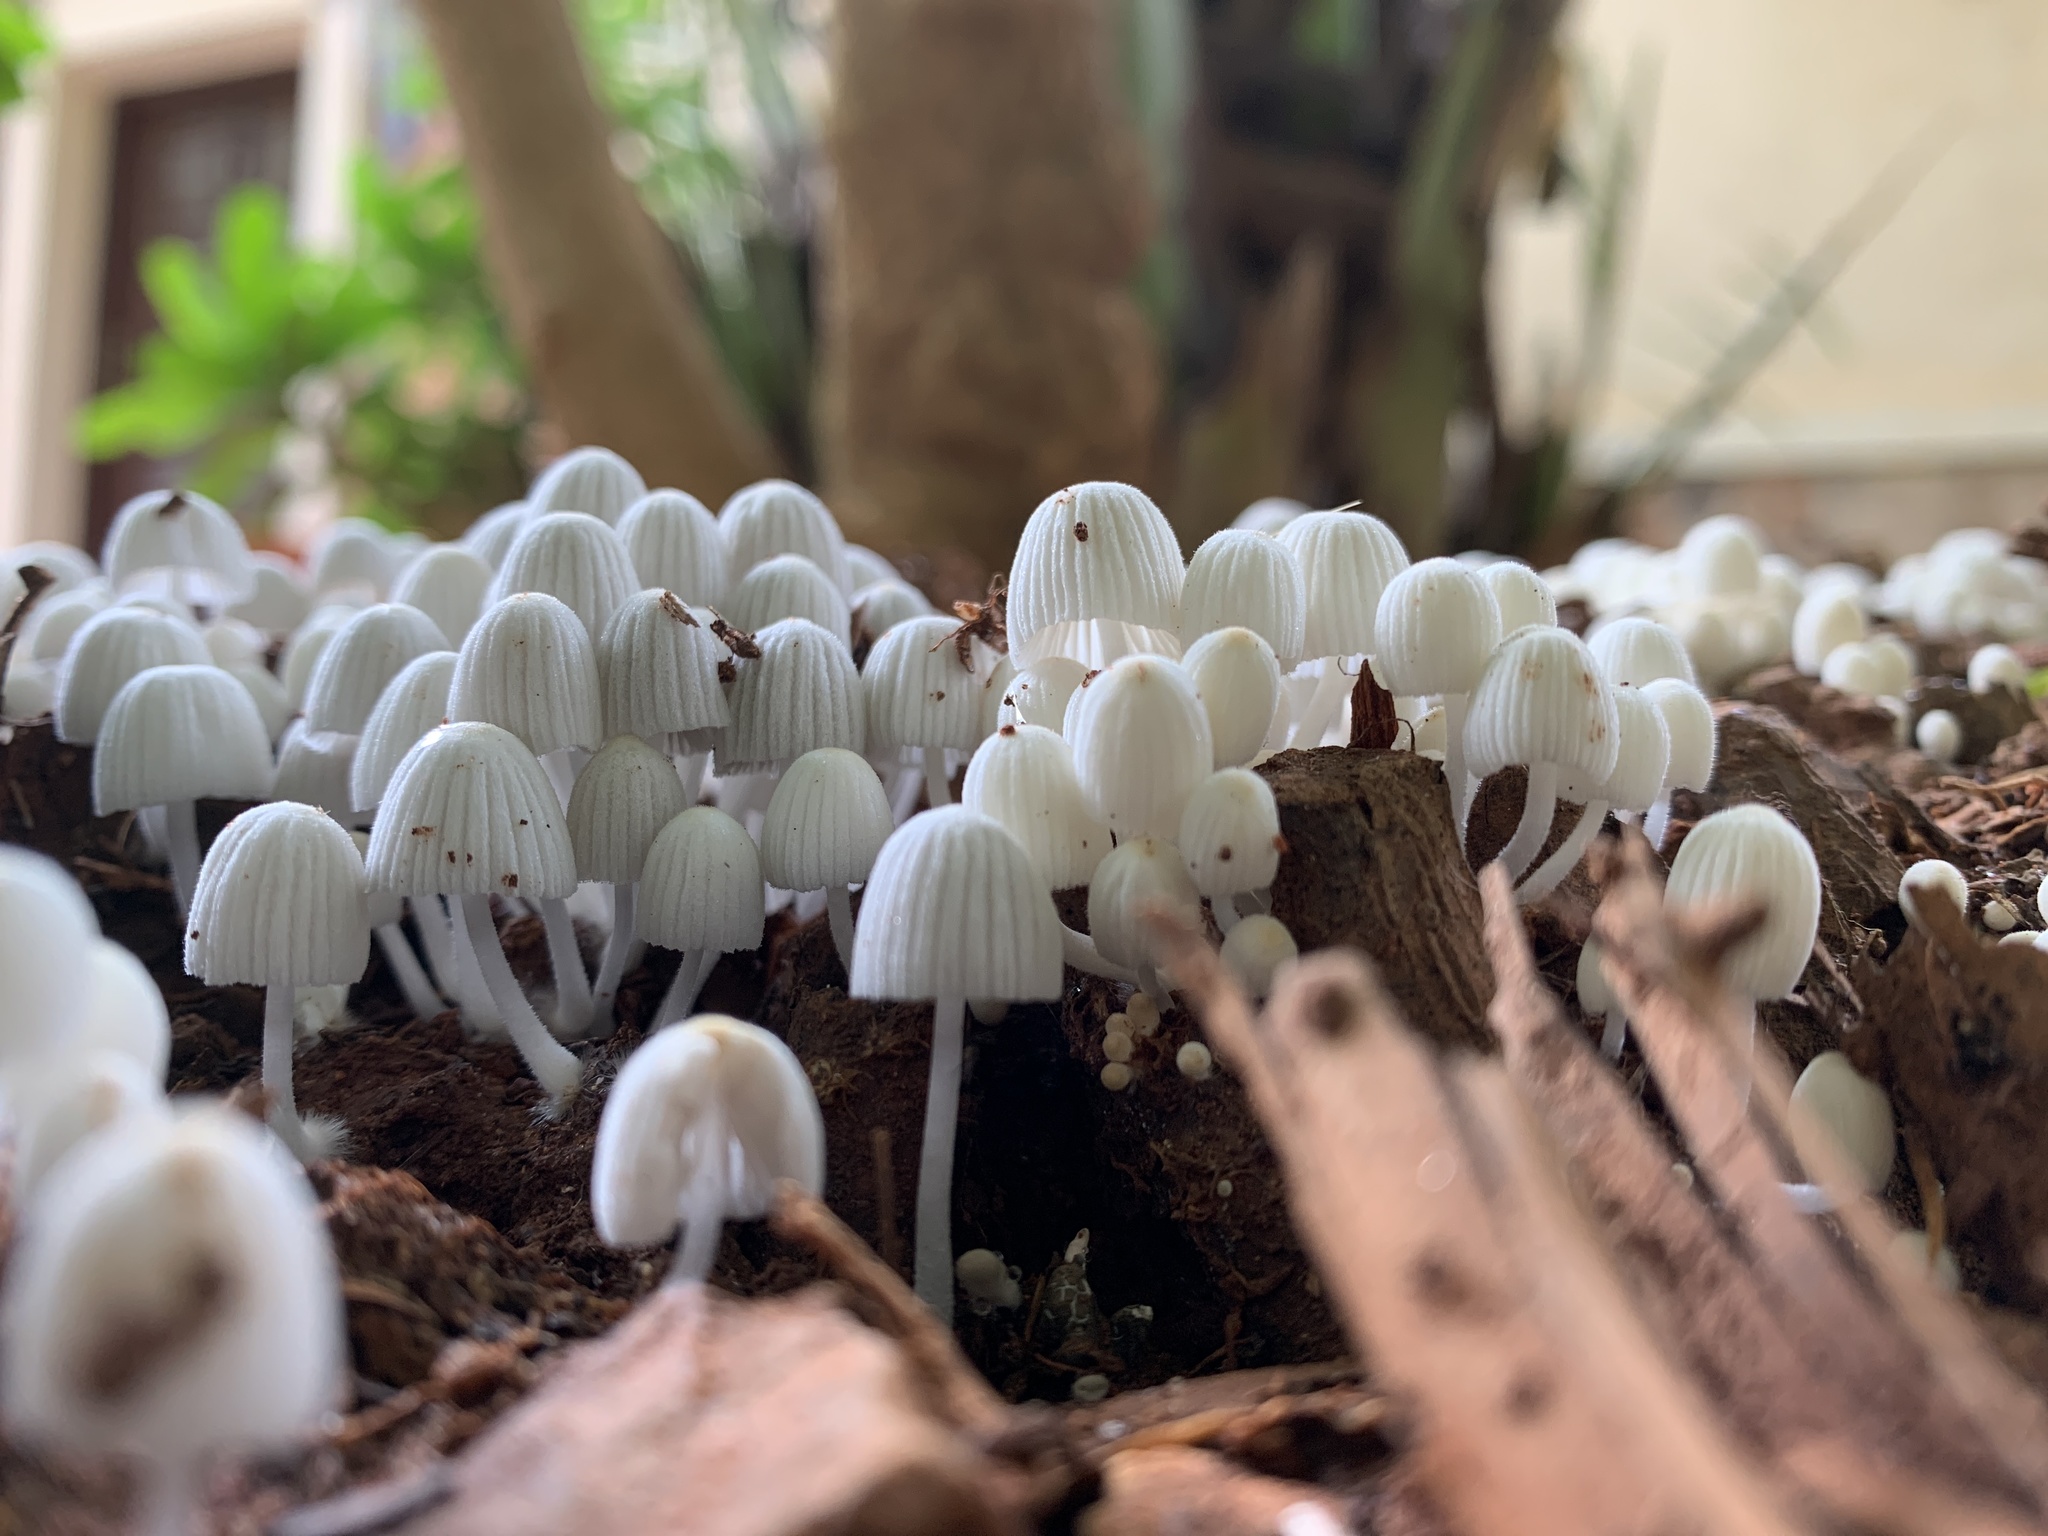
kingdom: Fungi
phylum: Basidiomycota
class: Agaricomycetes
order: Agaricales
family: Psathyrellaceae
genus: Coprinellus
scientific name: Coprinellus disseminatus
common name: Fairies' bonnets
